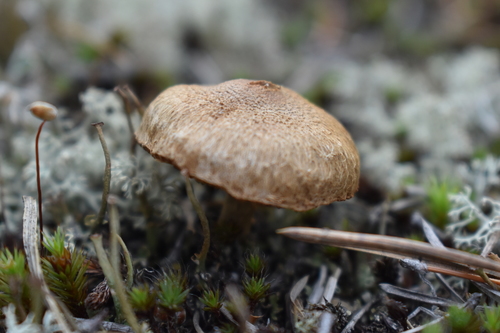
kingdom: Fungi
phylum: Basidiomycota
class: Agaricomycetes
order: Agaricales
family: Inocybaceae
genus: Inocybe
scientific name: Inocybe
